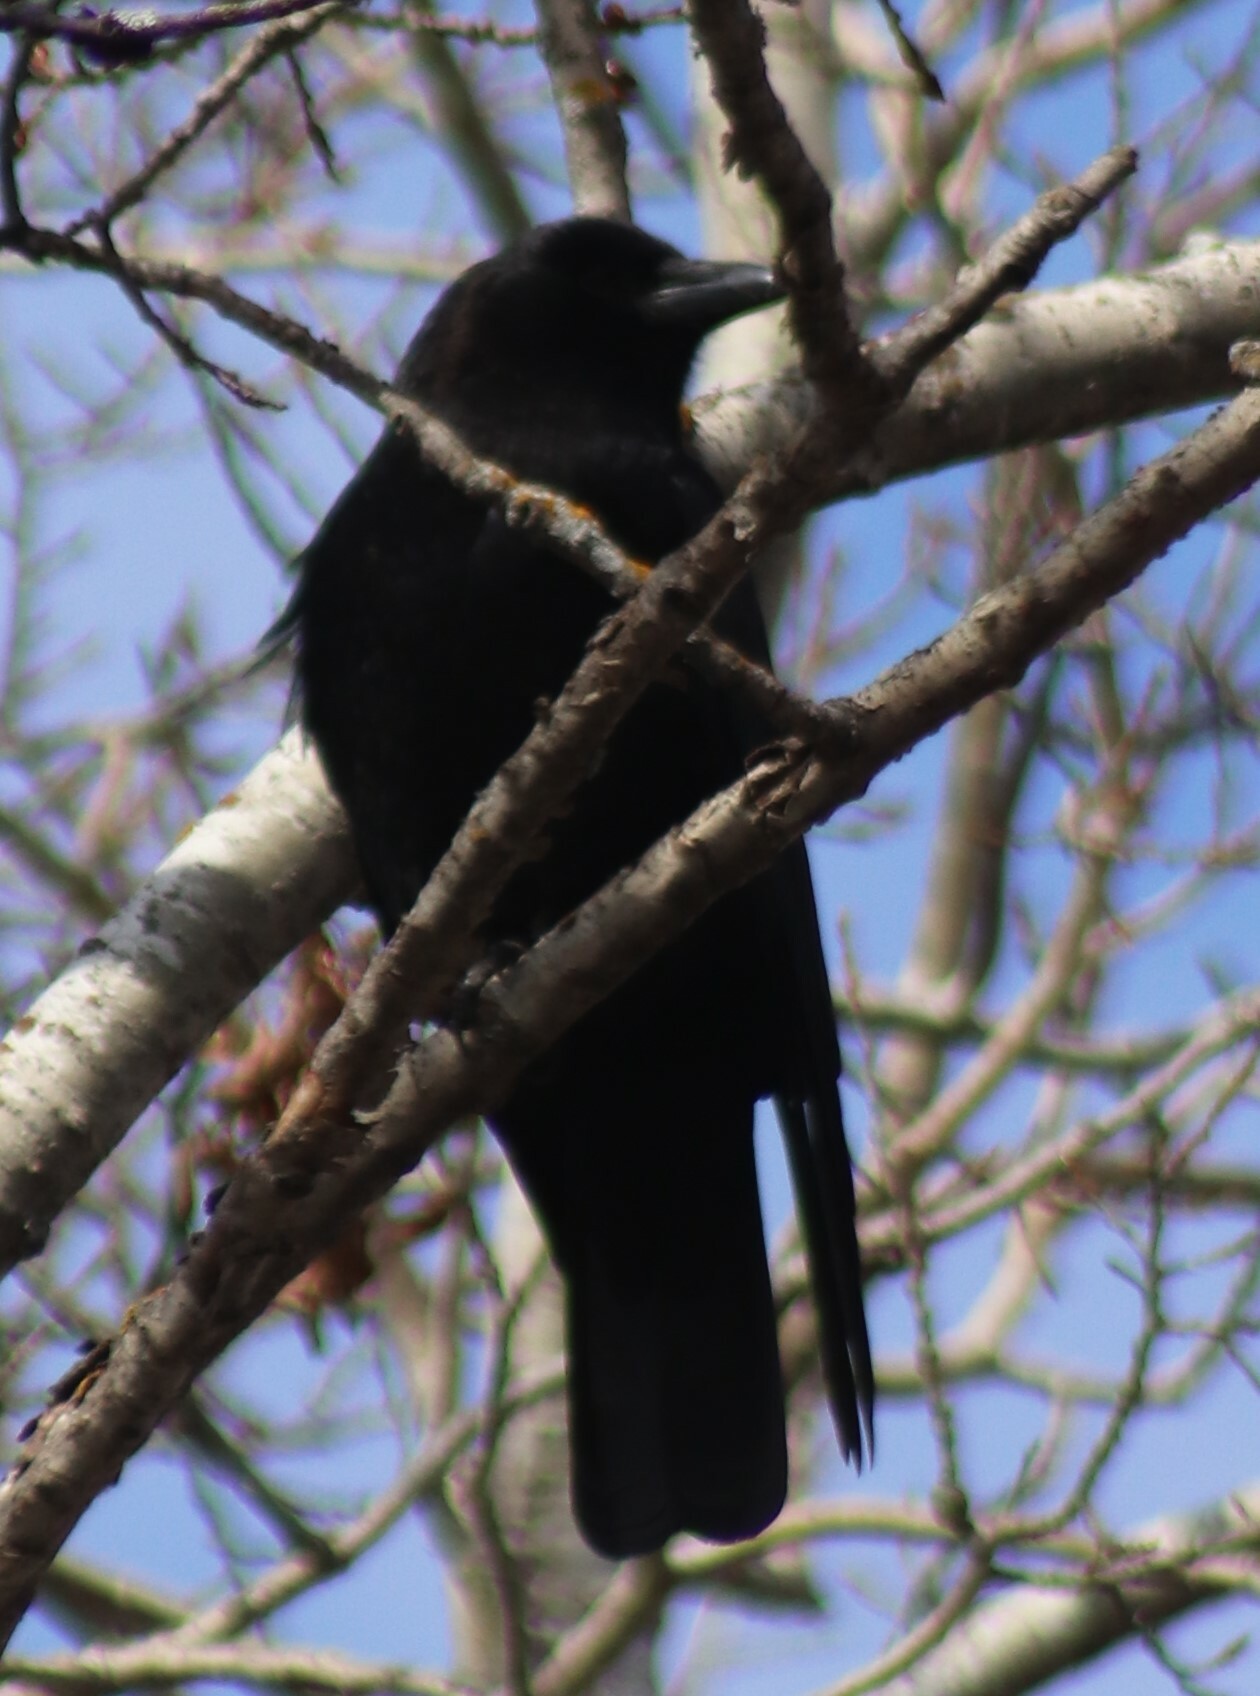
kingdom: Animalia
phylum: Chordata
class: Aves
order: Passeriformes
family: Corvidae
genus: Corvus
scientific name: Corvus brachyrhynchos
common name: American crow
